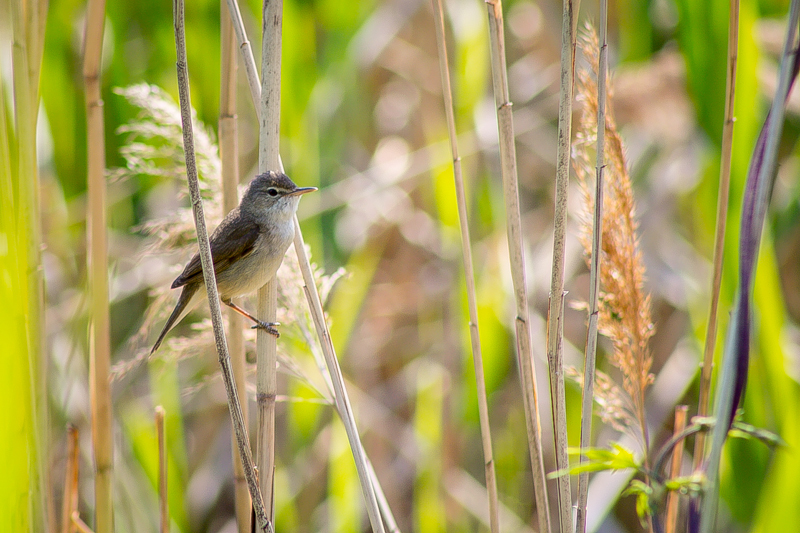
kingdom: Animalia
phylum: Chordata
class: Aves
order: Passeriformes
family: Acrocephalidae
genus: Acrocephalus
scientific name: Acrocephalus dumetorum
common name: Blyth's reed warbler
